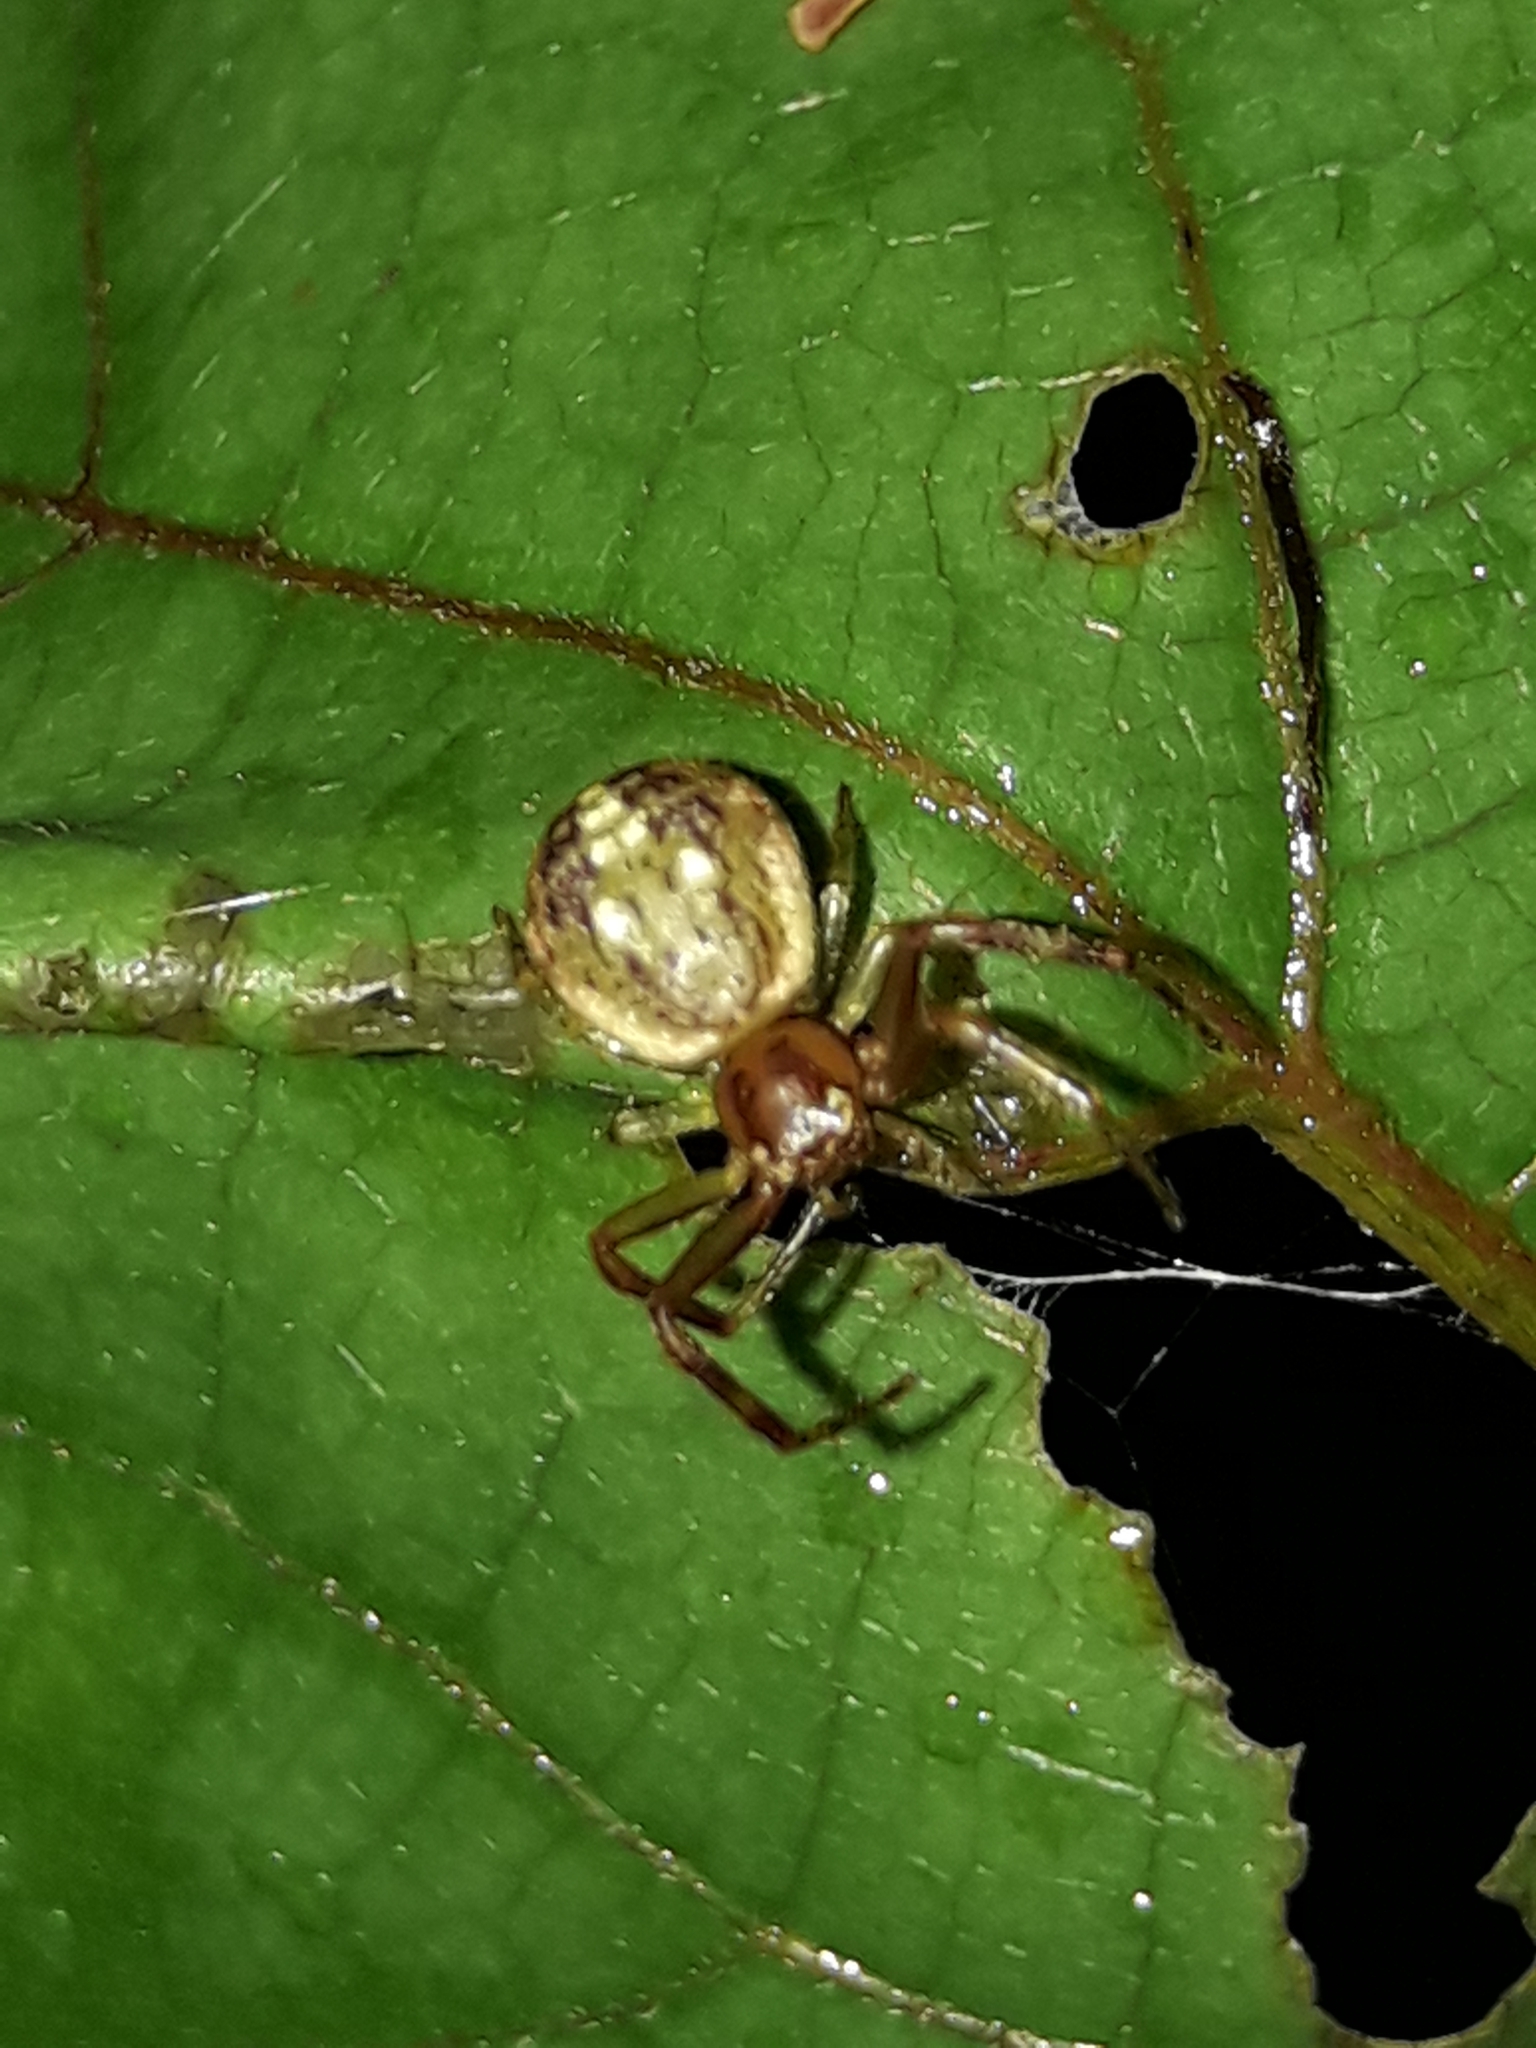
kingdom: Animalia
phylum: Arthropoda
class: Arachnida
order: Araneae
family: Thomisidae
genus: Diaea
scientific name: Diaea ambara
